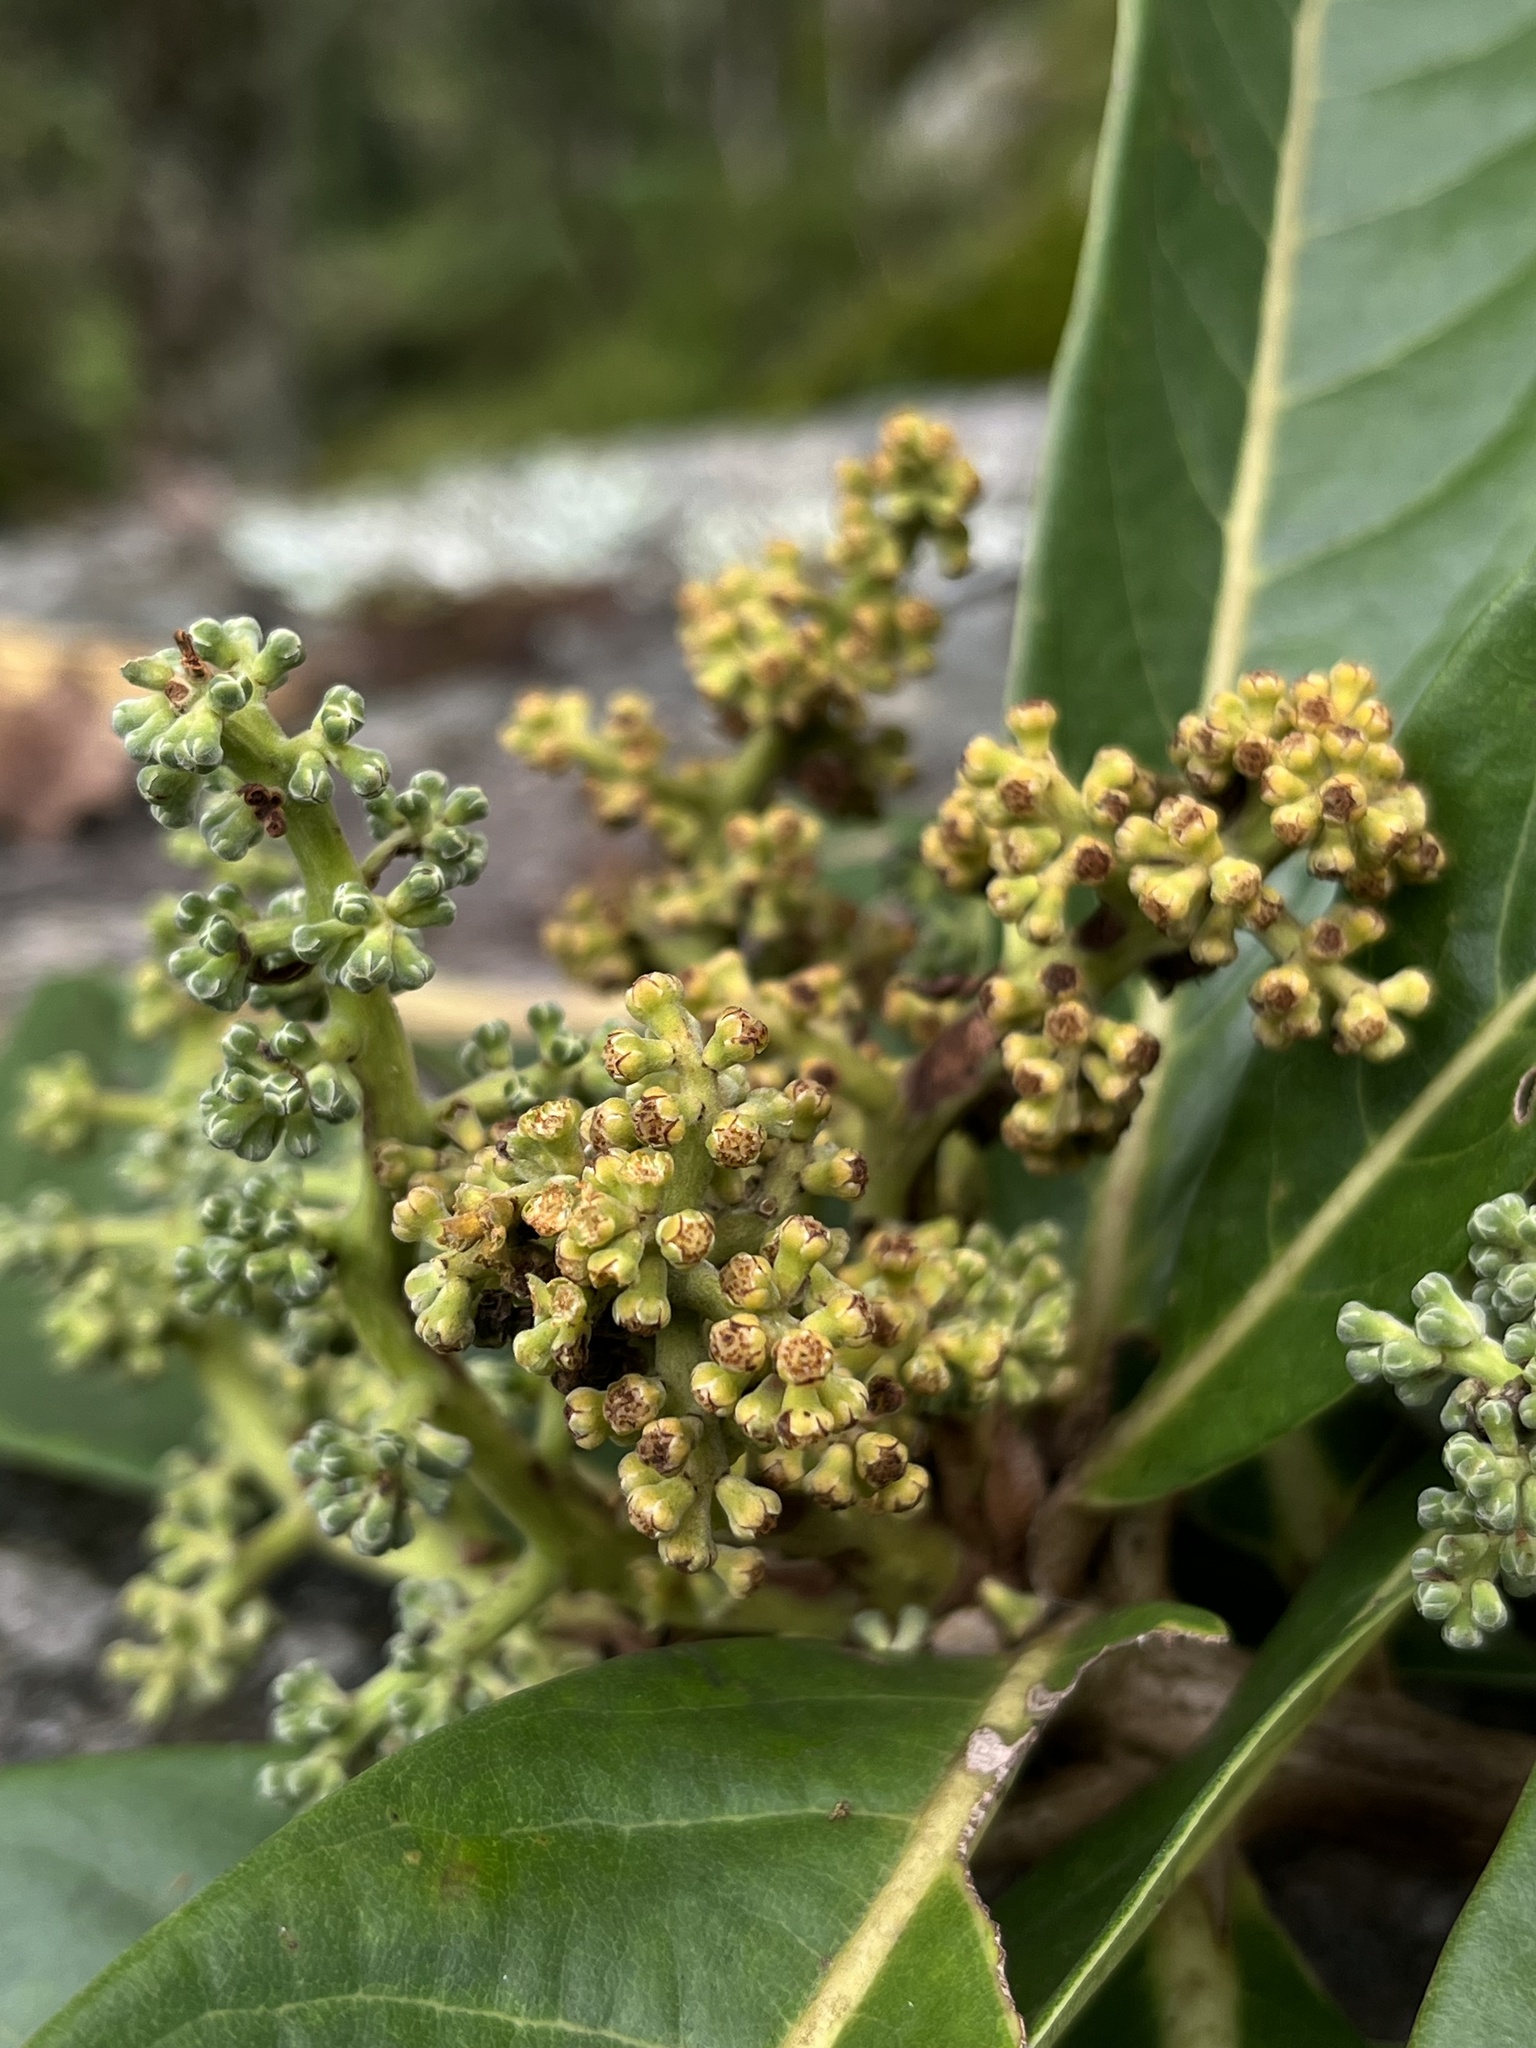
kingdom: Plantae
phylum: Tracheophyta
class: Magnoliopsida
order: Laurales
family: Lauraceae
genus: Aniba
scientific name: Aniba robusta
